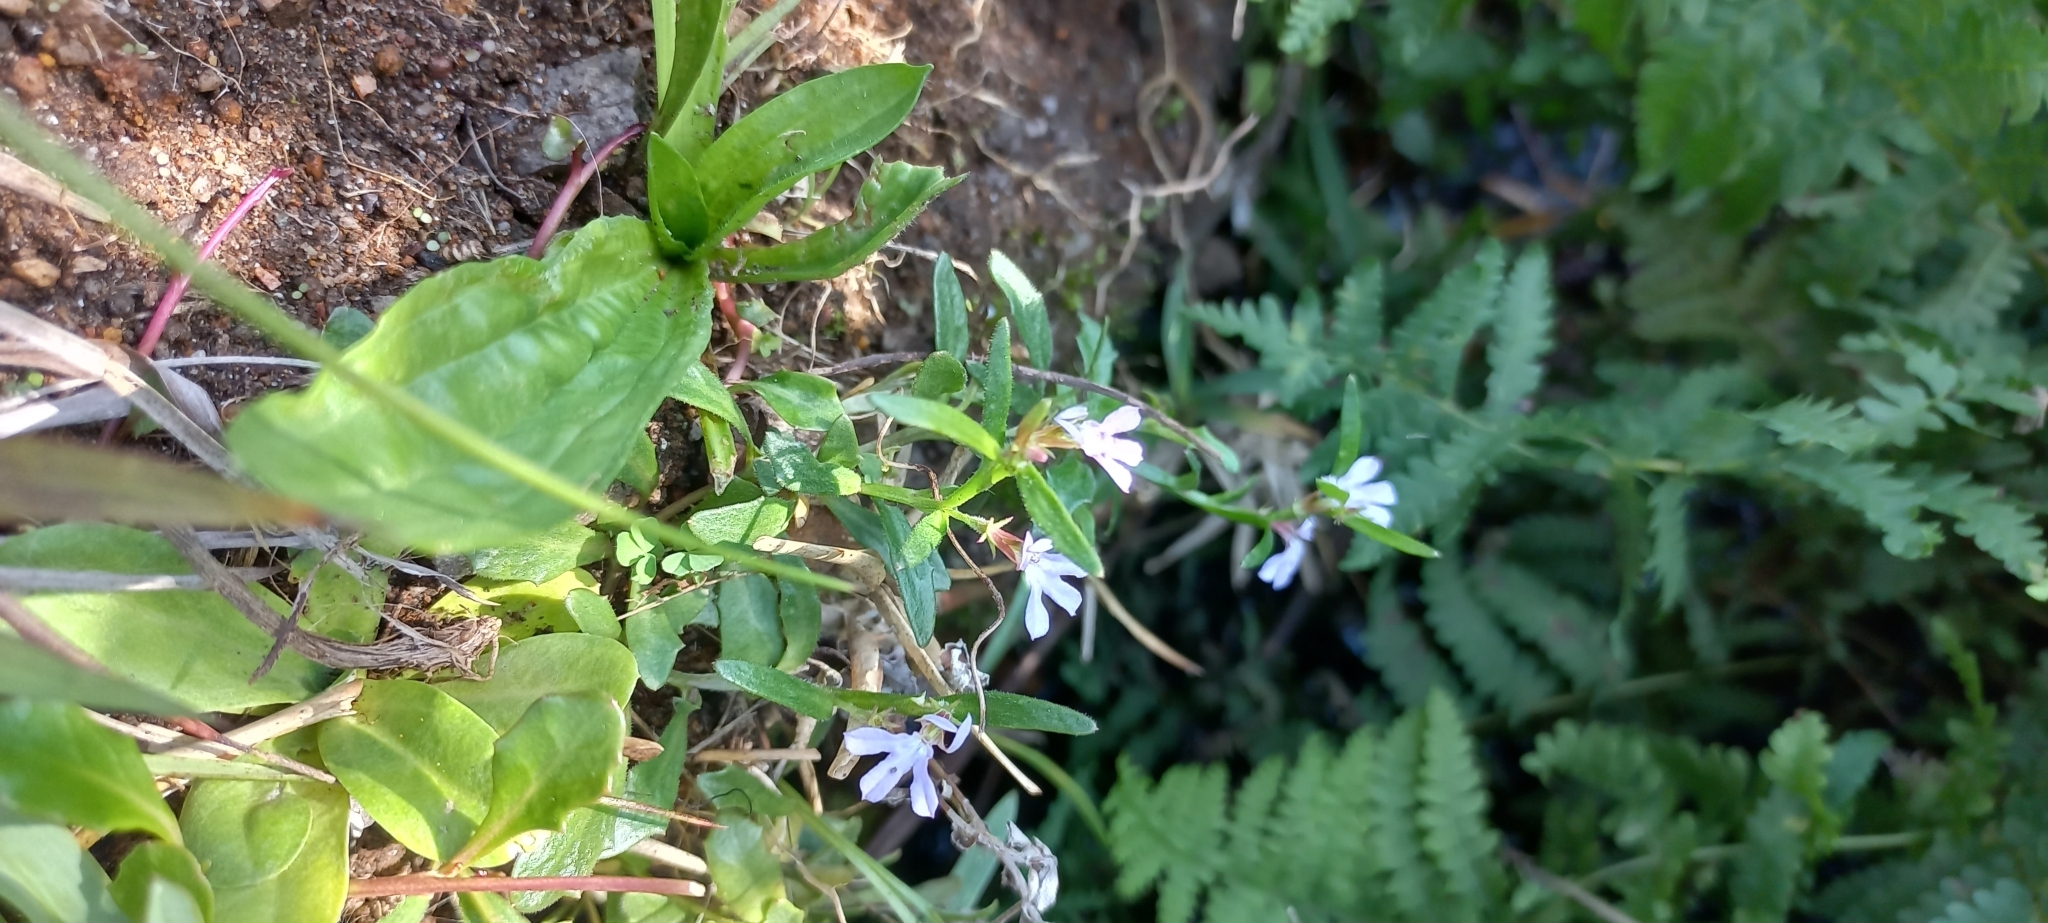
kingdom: Plantae
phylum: Tracheophyta
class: Magnoliopsida
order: Asterales
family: Campanulaceae
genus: Lobelia
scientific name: Lobelia anceps
